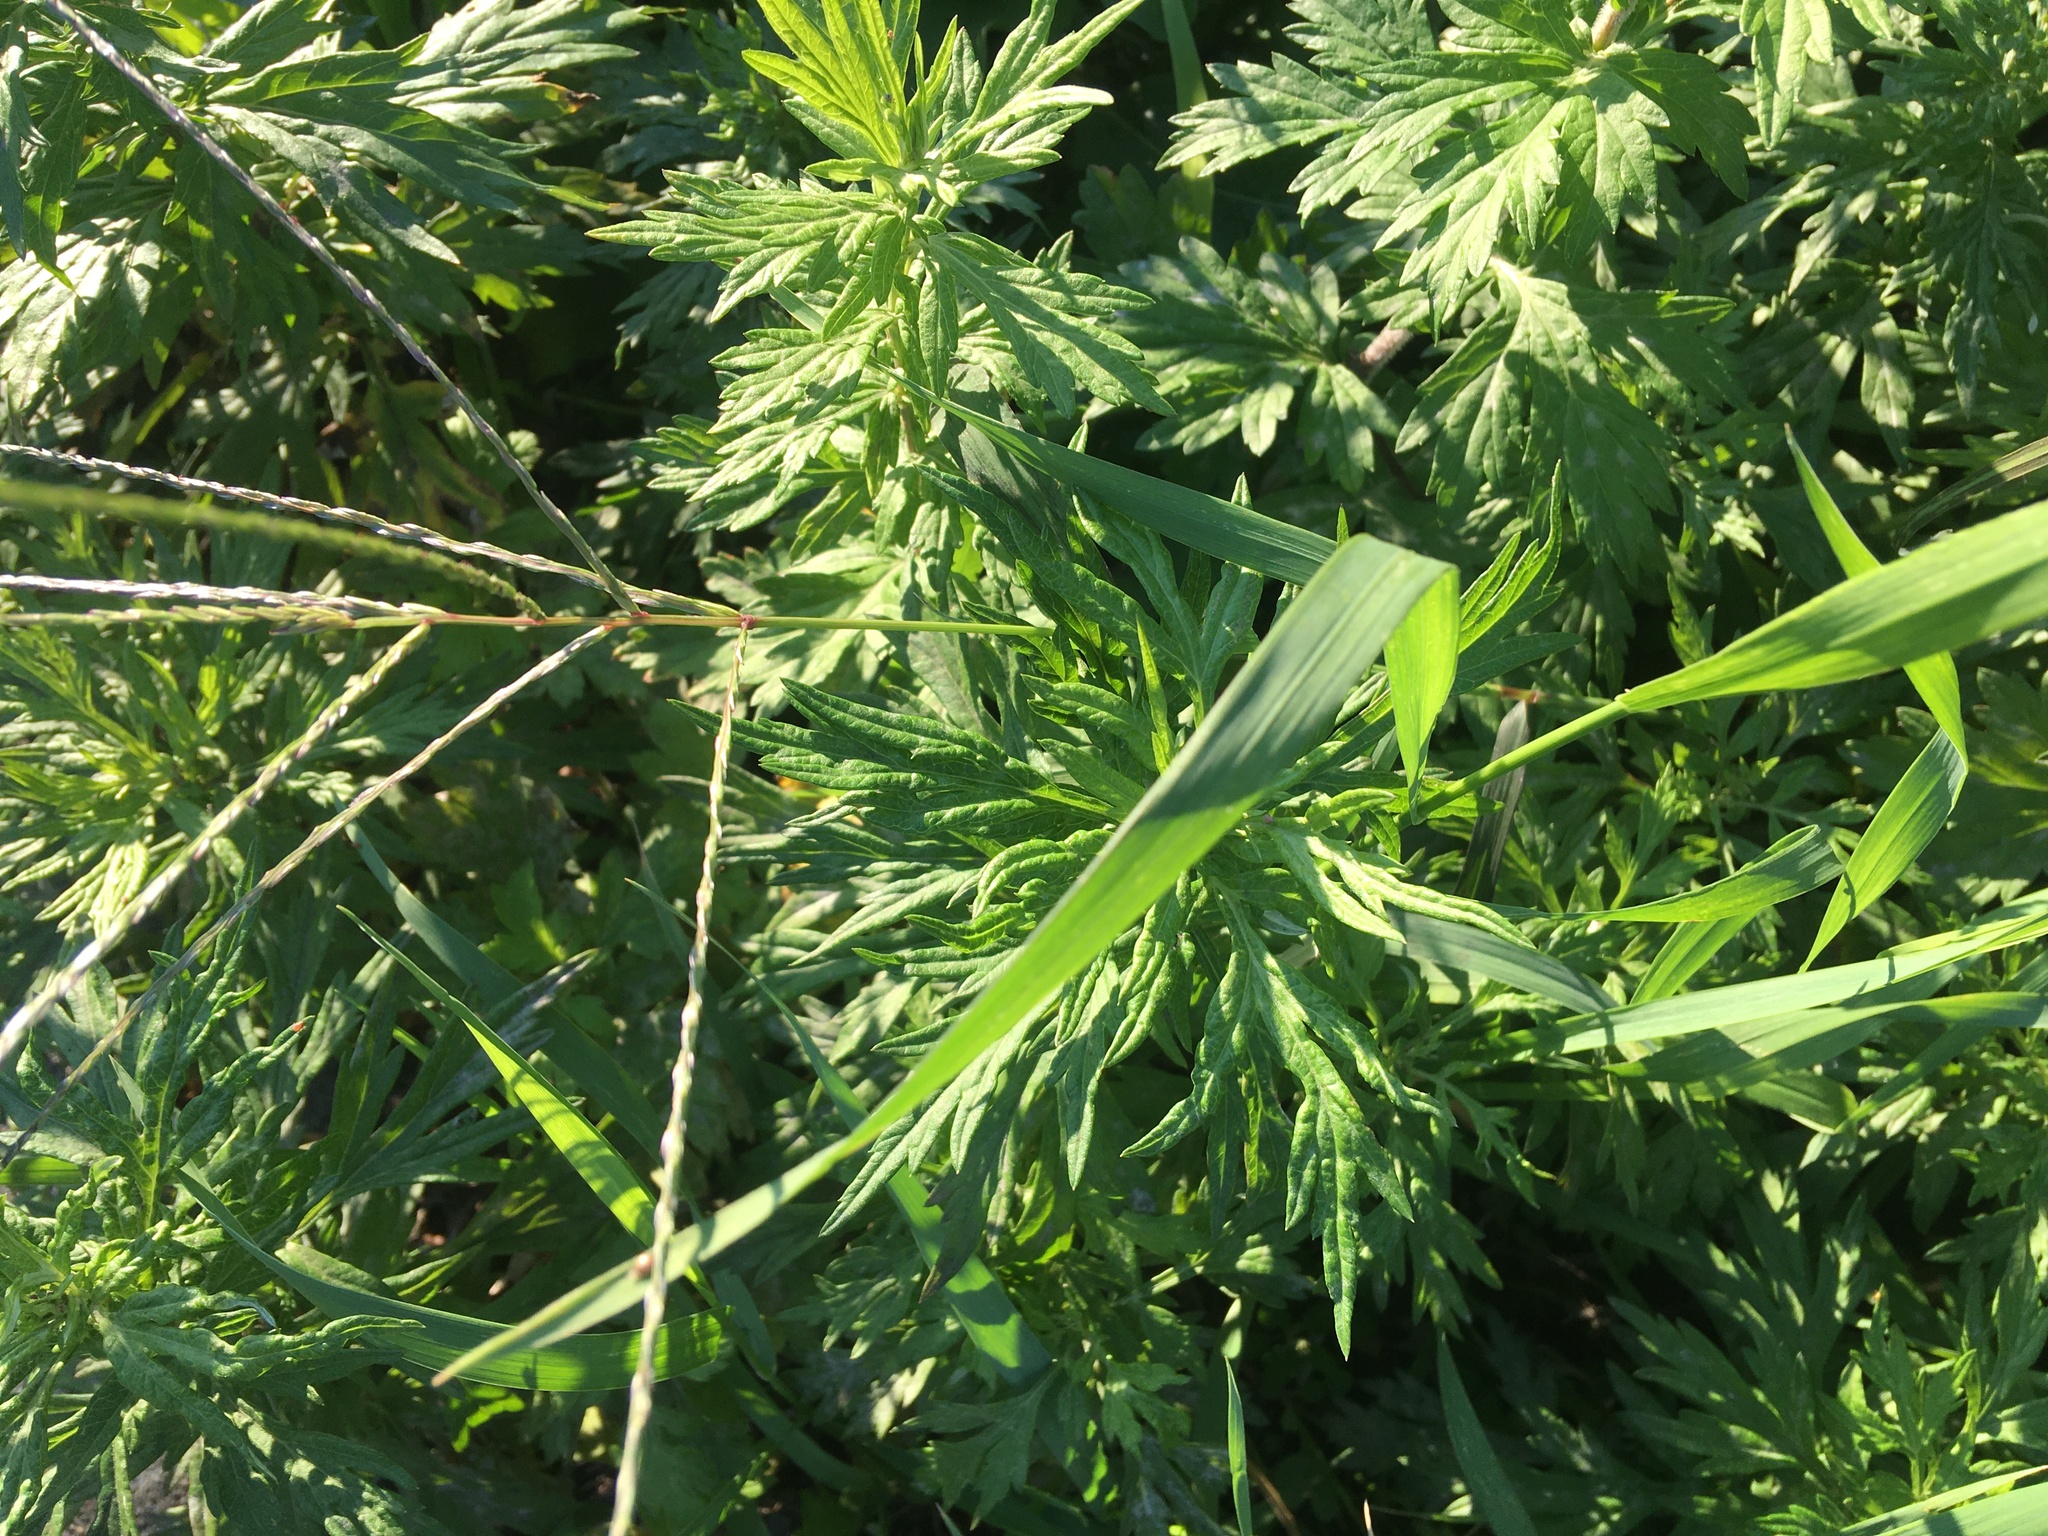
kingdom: Plantae
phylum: Tracheophyta
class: Magnoliopsida
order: Asterales
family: Asteraceae
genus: Artemisia
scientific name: Artemisia vulgaris
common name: Mugwort
